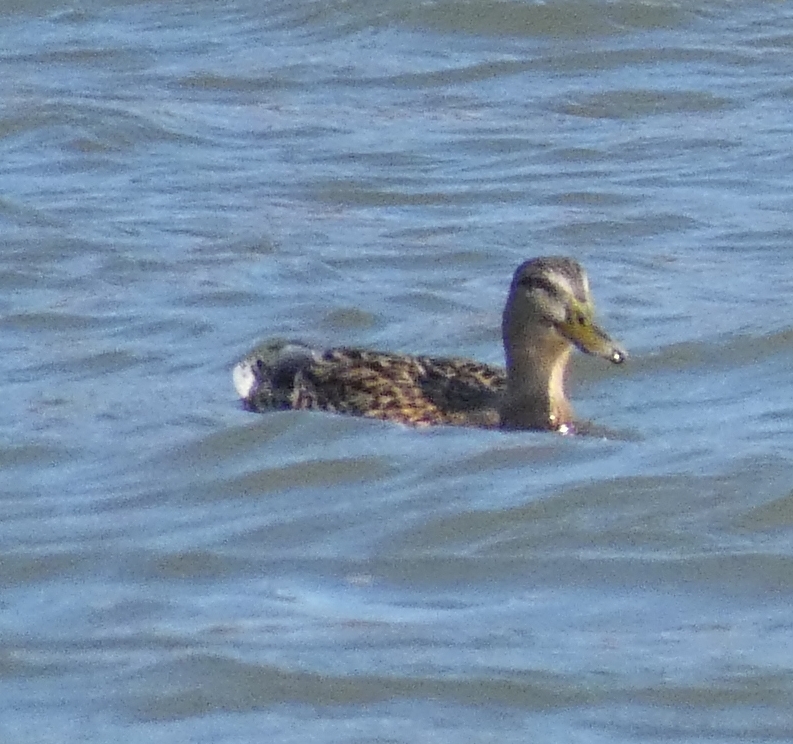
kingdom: Animalia
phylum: Chordata
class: Aves
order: Anseriformes
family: Anatidae
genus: Anas
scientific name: Anas platyrhynchos
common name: Mallard
